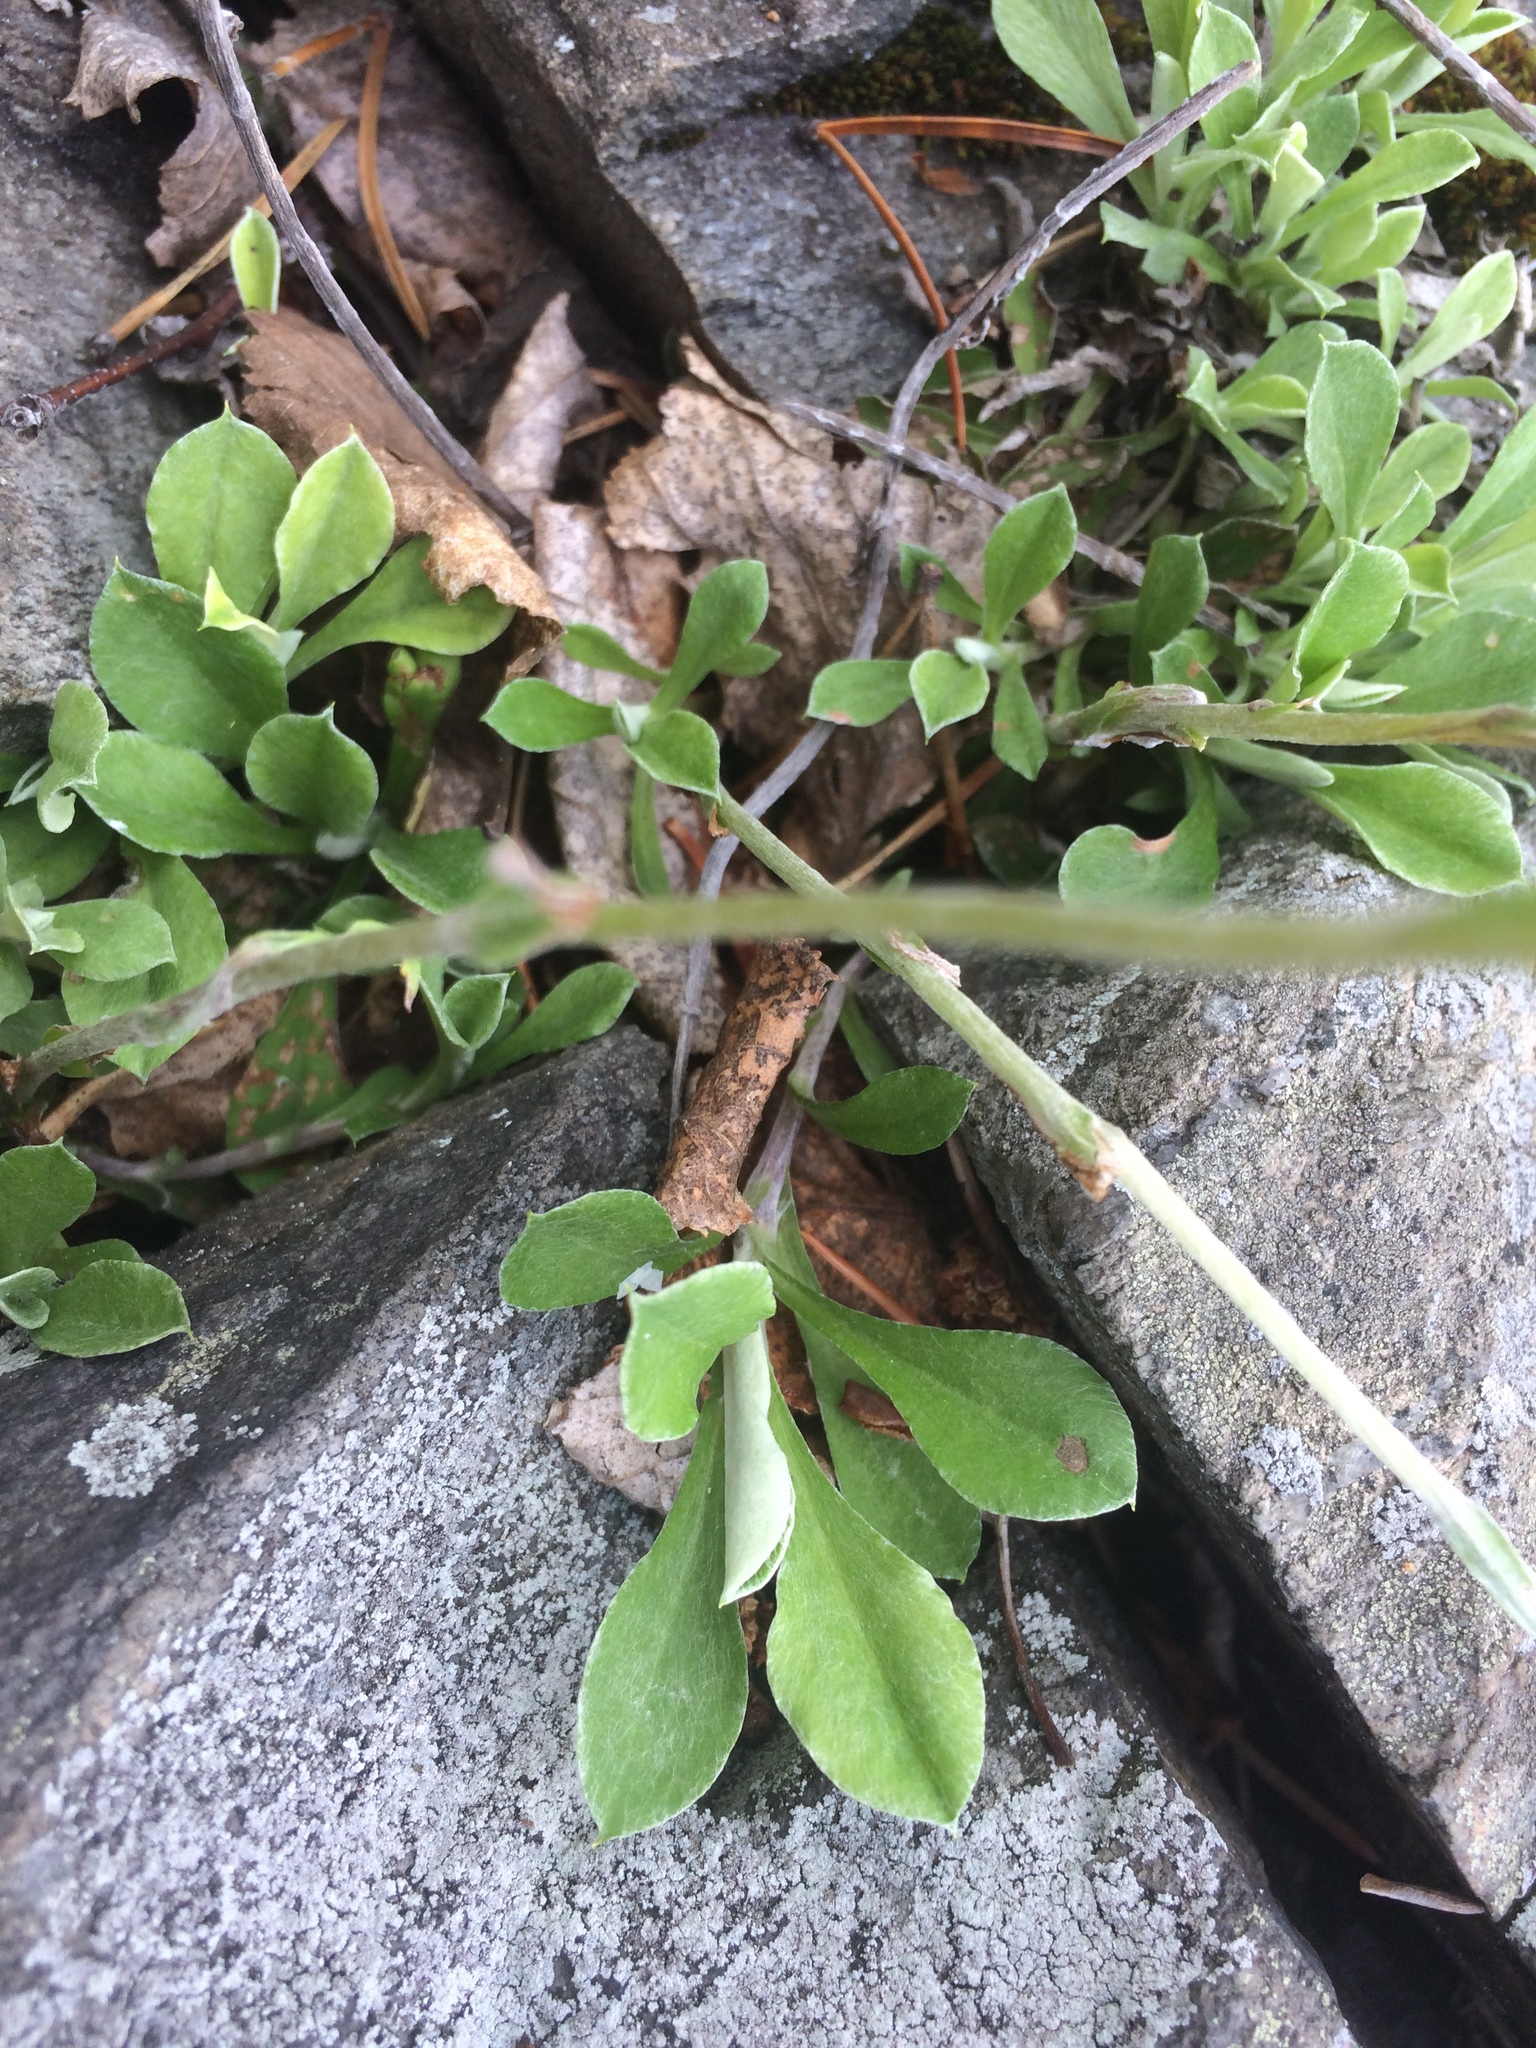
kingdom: Plantae
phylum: Tracheophyta
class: Magnoliopsida
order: Asterales
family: Asteraceae
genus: Antennaria
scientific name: Antennaria howellii
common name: Howell's pussytoes
